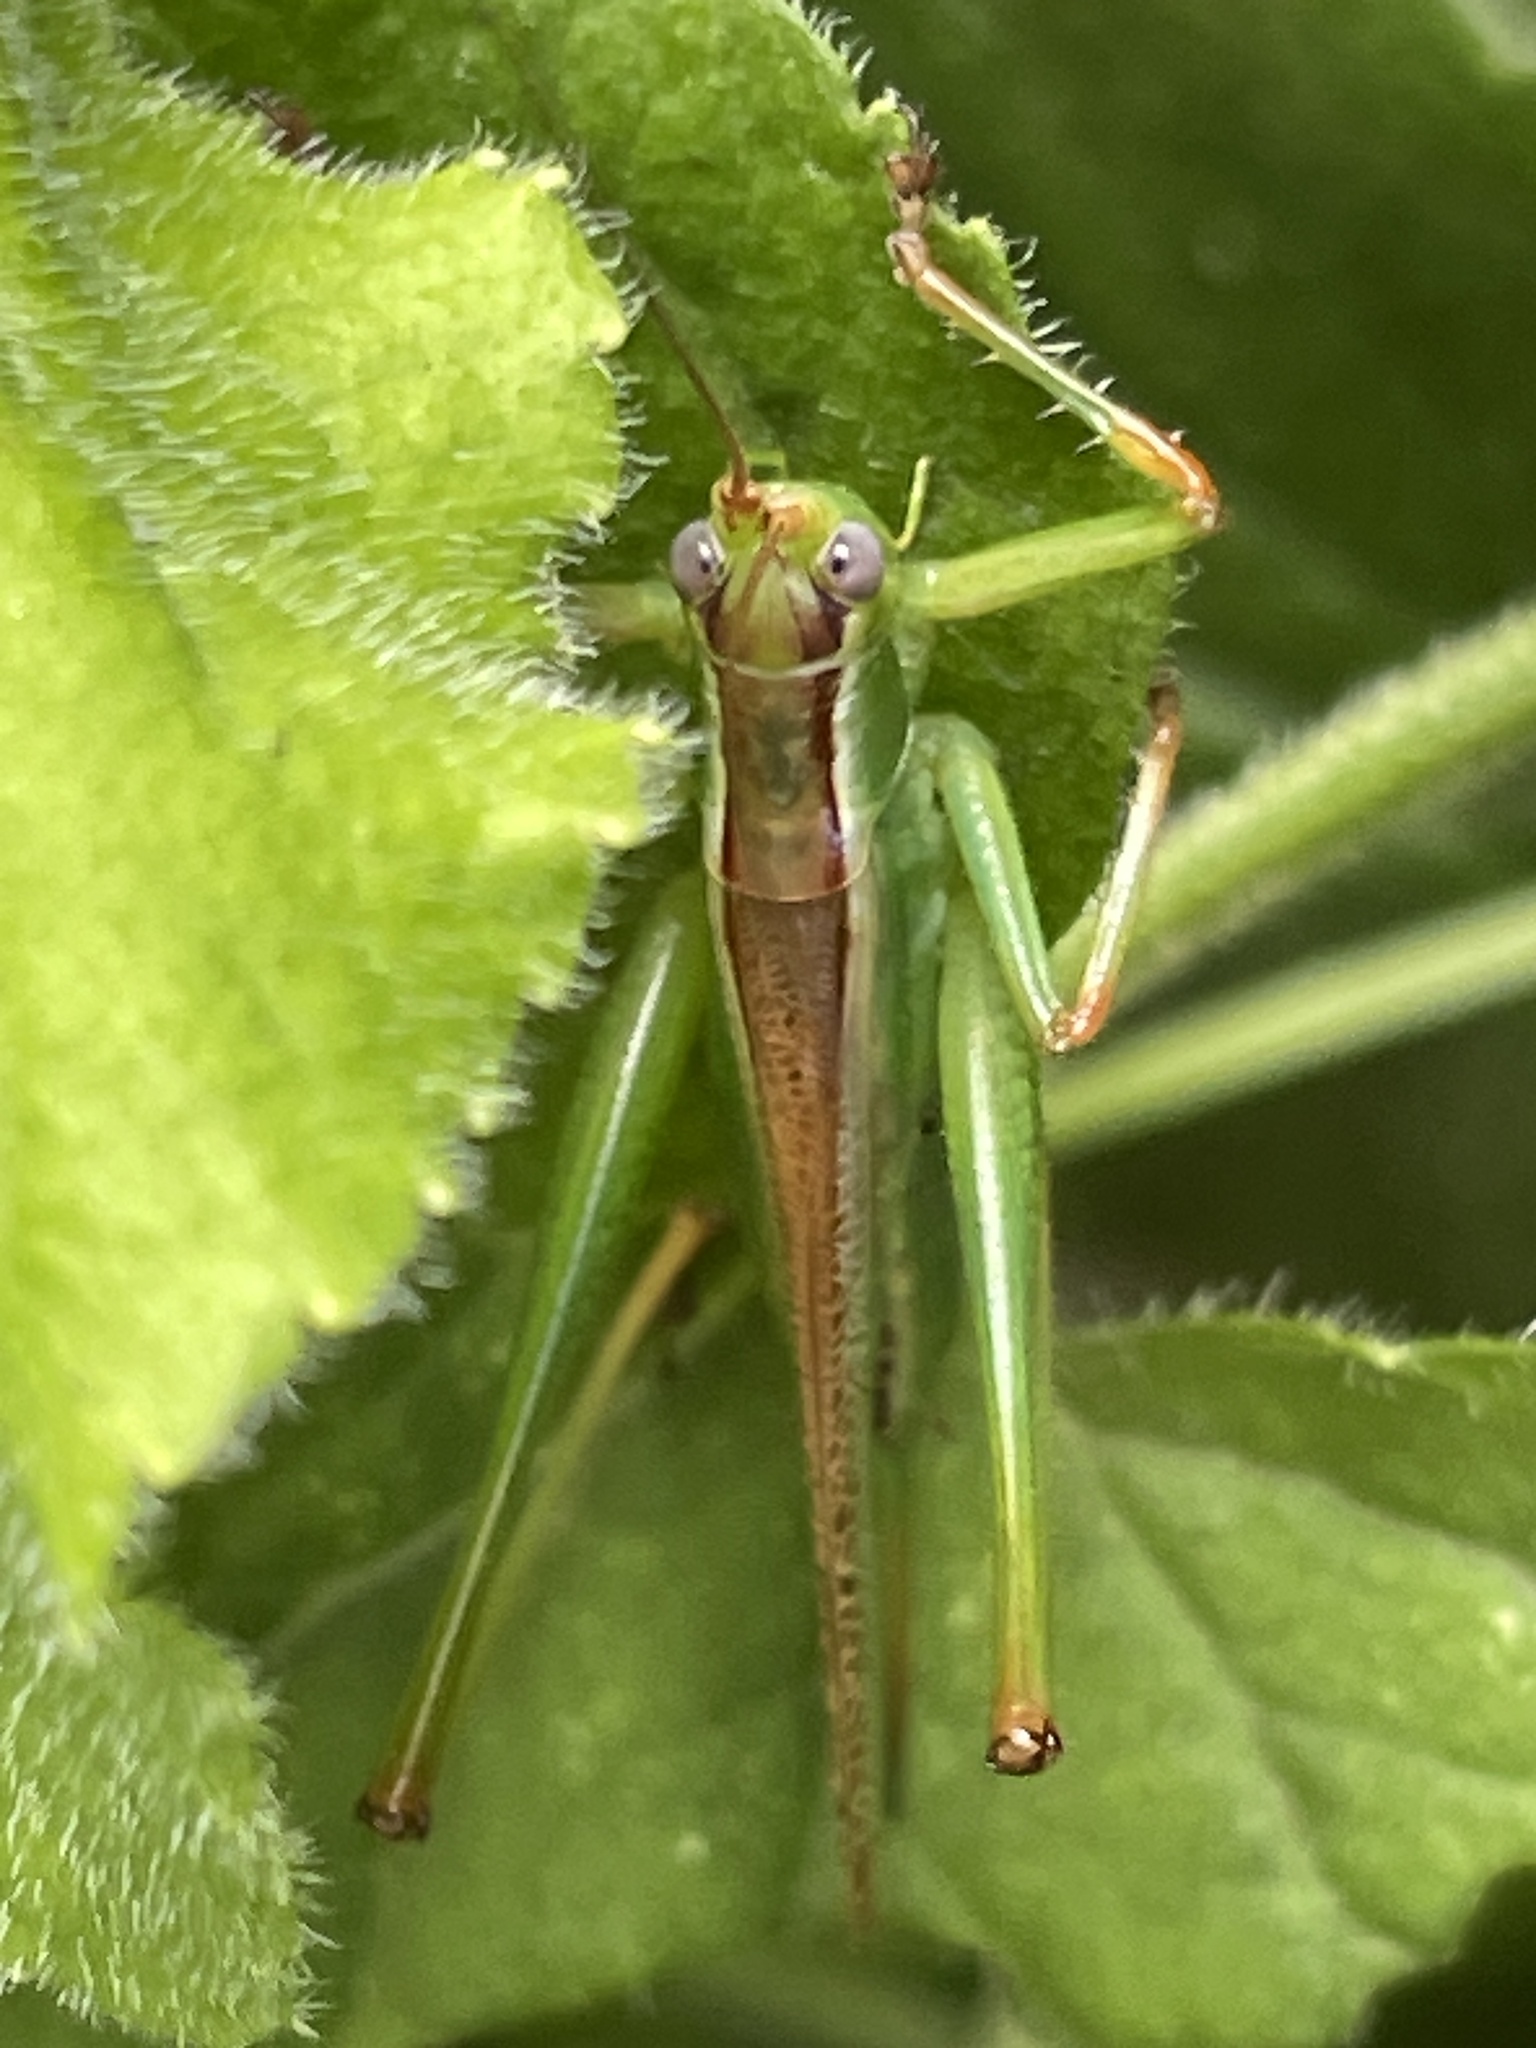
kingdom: Animalia
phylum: Arthropoda
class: Insecta
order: Orthoptera
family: Tettigoniidae
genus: Conocephalomima
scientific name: Conocephalomima barameda
